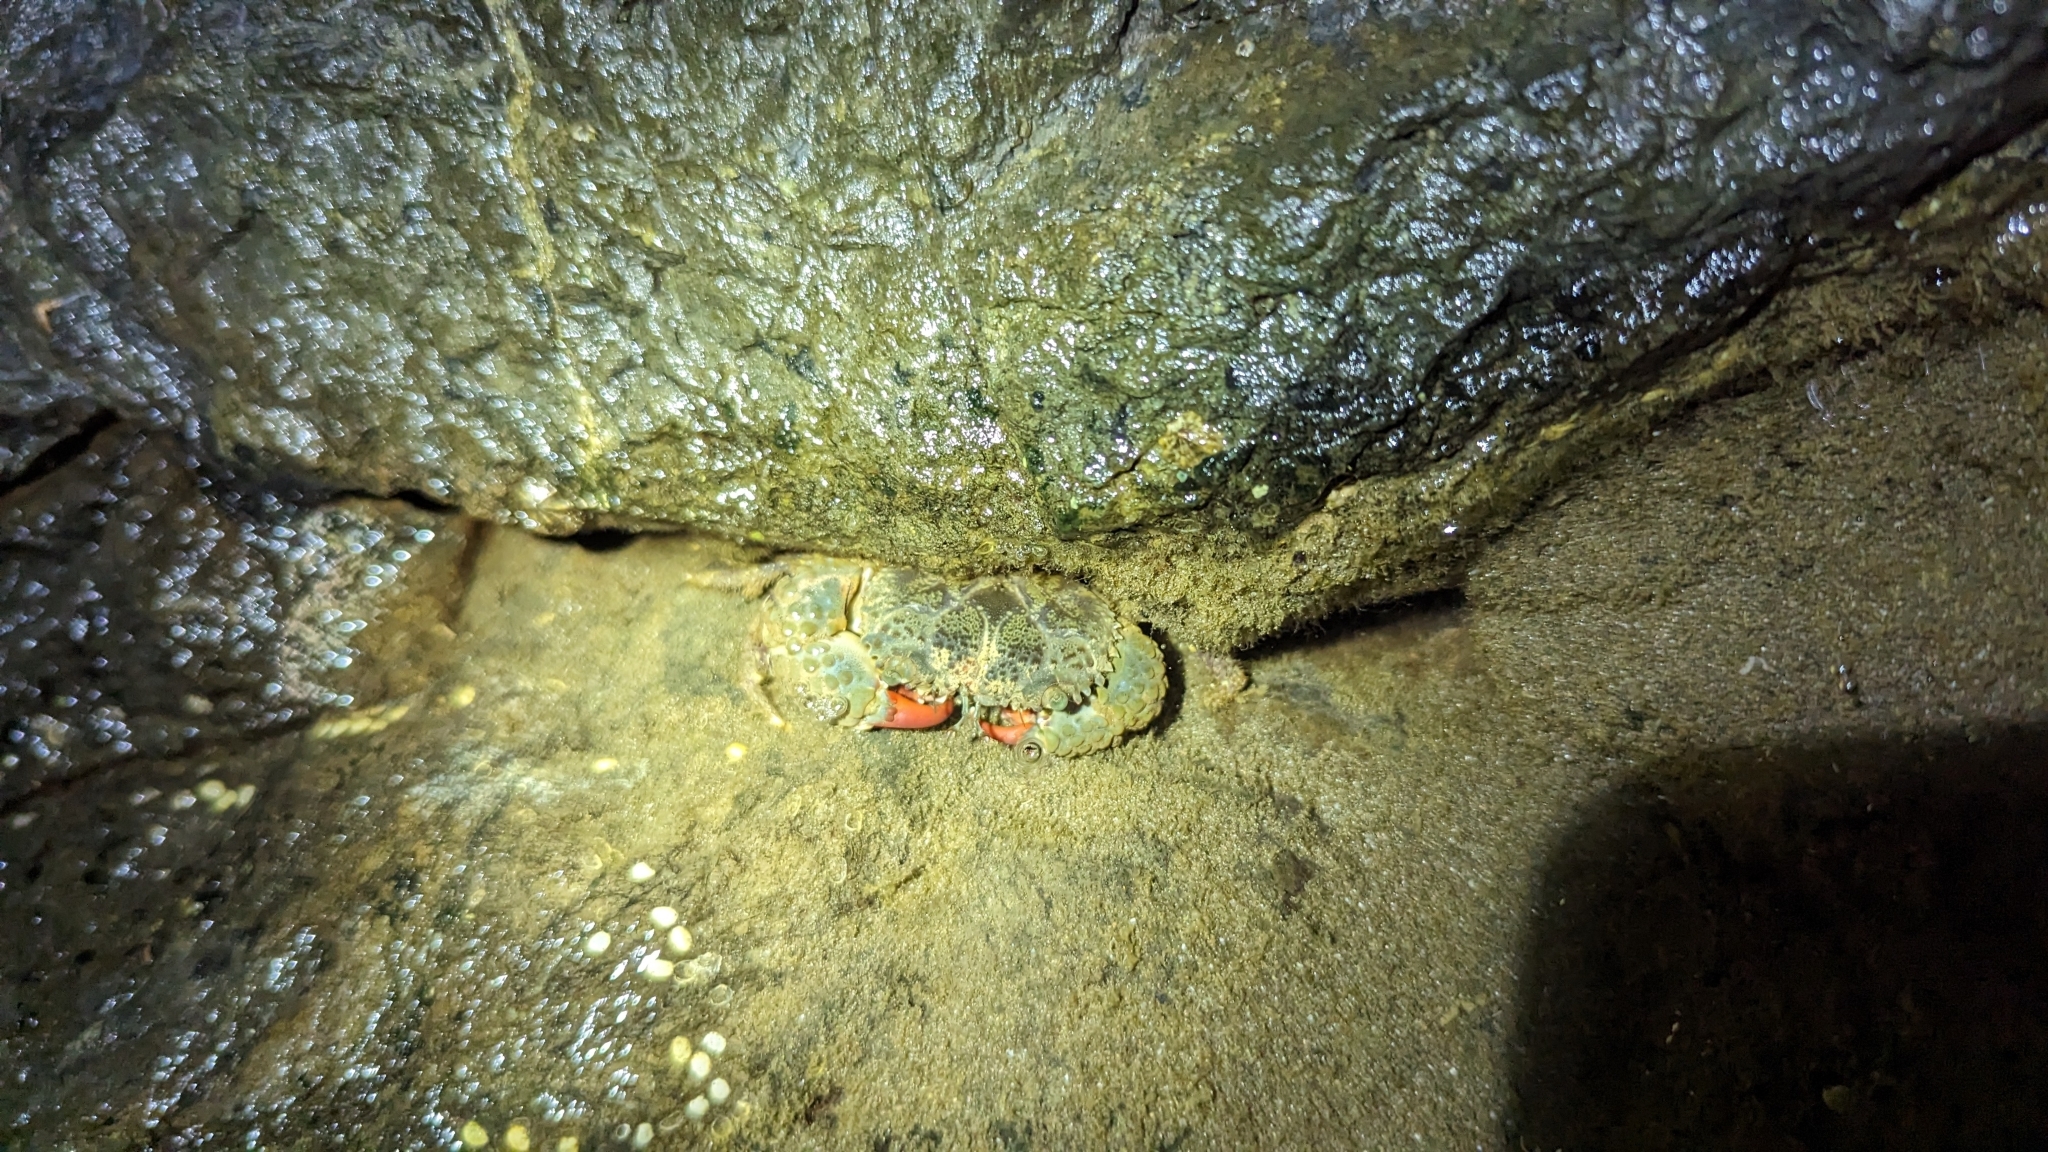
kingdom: Animalia
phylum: Arthropoda
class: Malacostraca
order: Decapoda
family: Eriphiidae
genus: Eriphia
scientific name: Eriphia squamata
